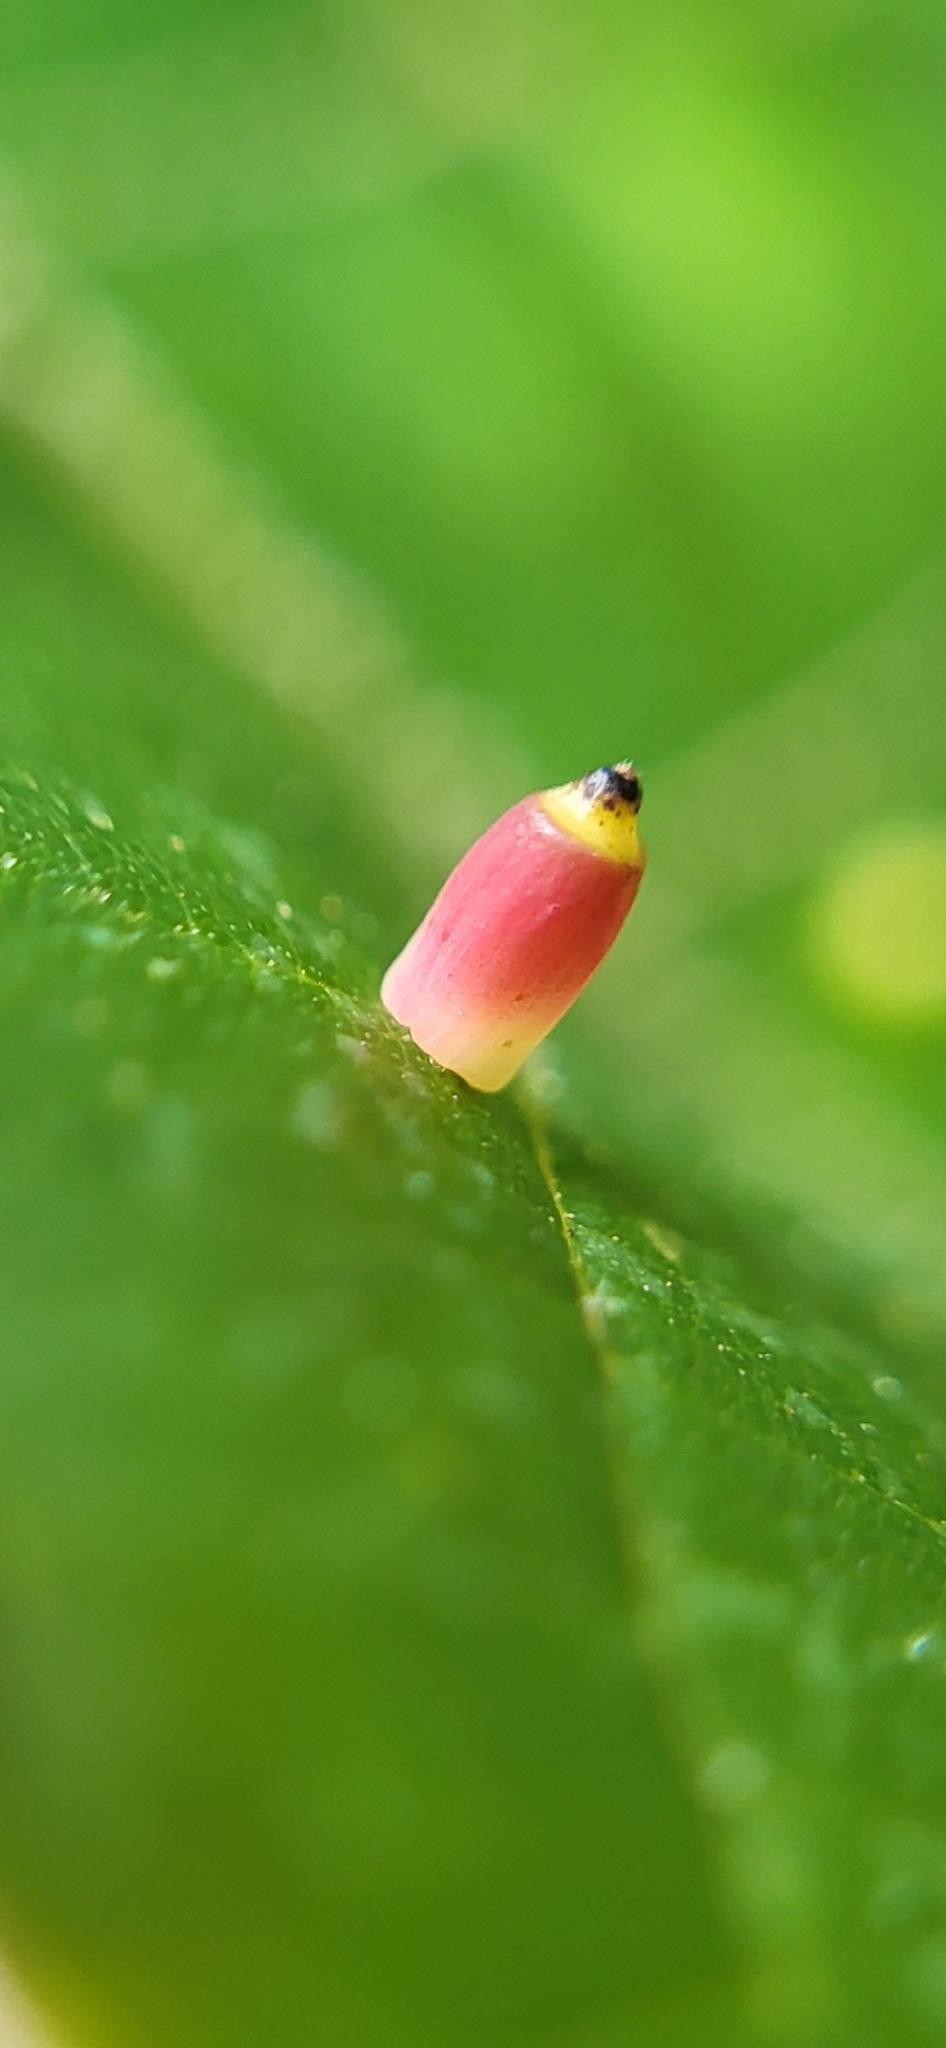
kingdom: Animalia
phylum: Arthropoda
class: Insecta
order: Diptera
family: Cecidomyiidae
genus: Caryomyia
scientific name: Caryomyia urnula
